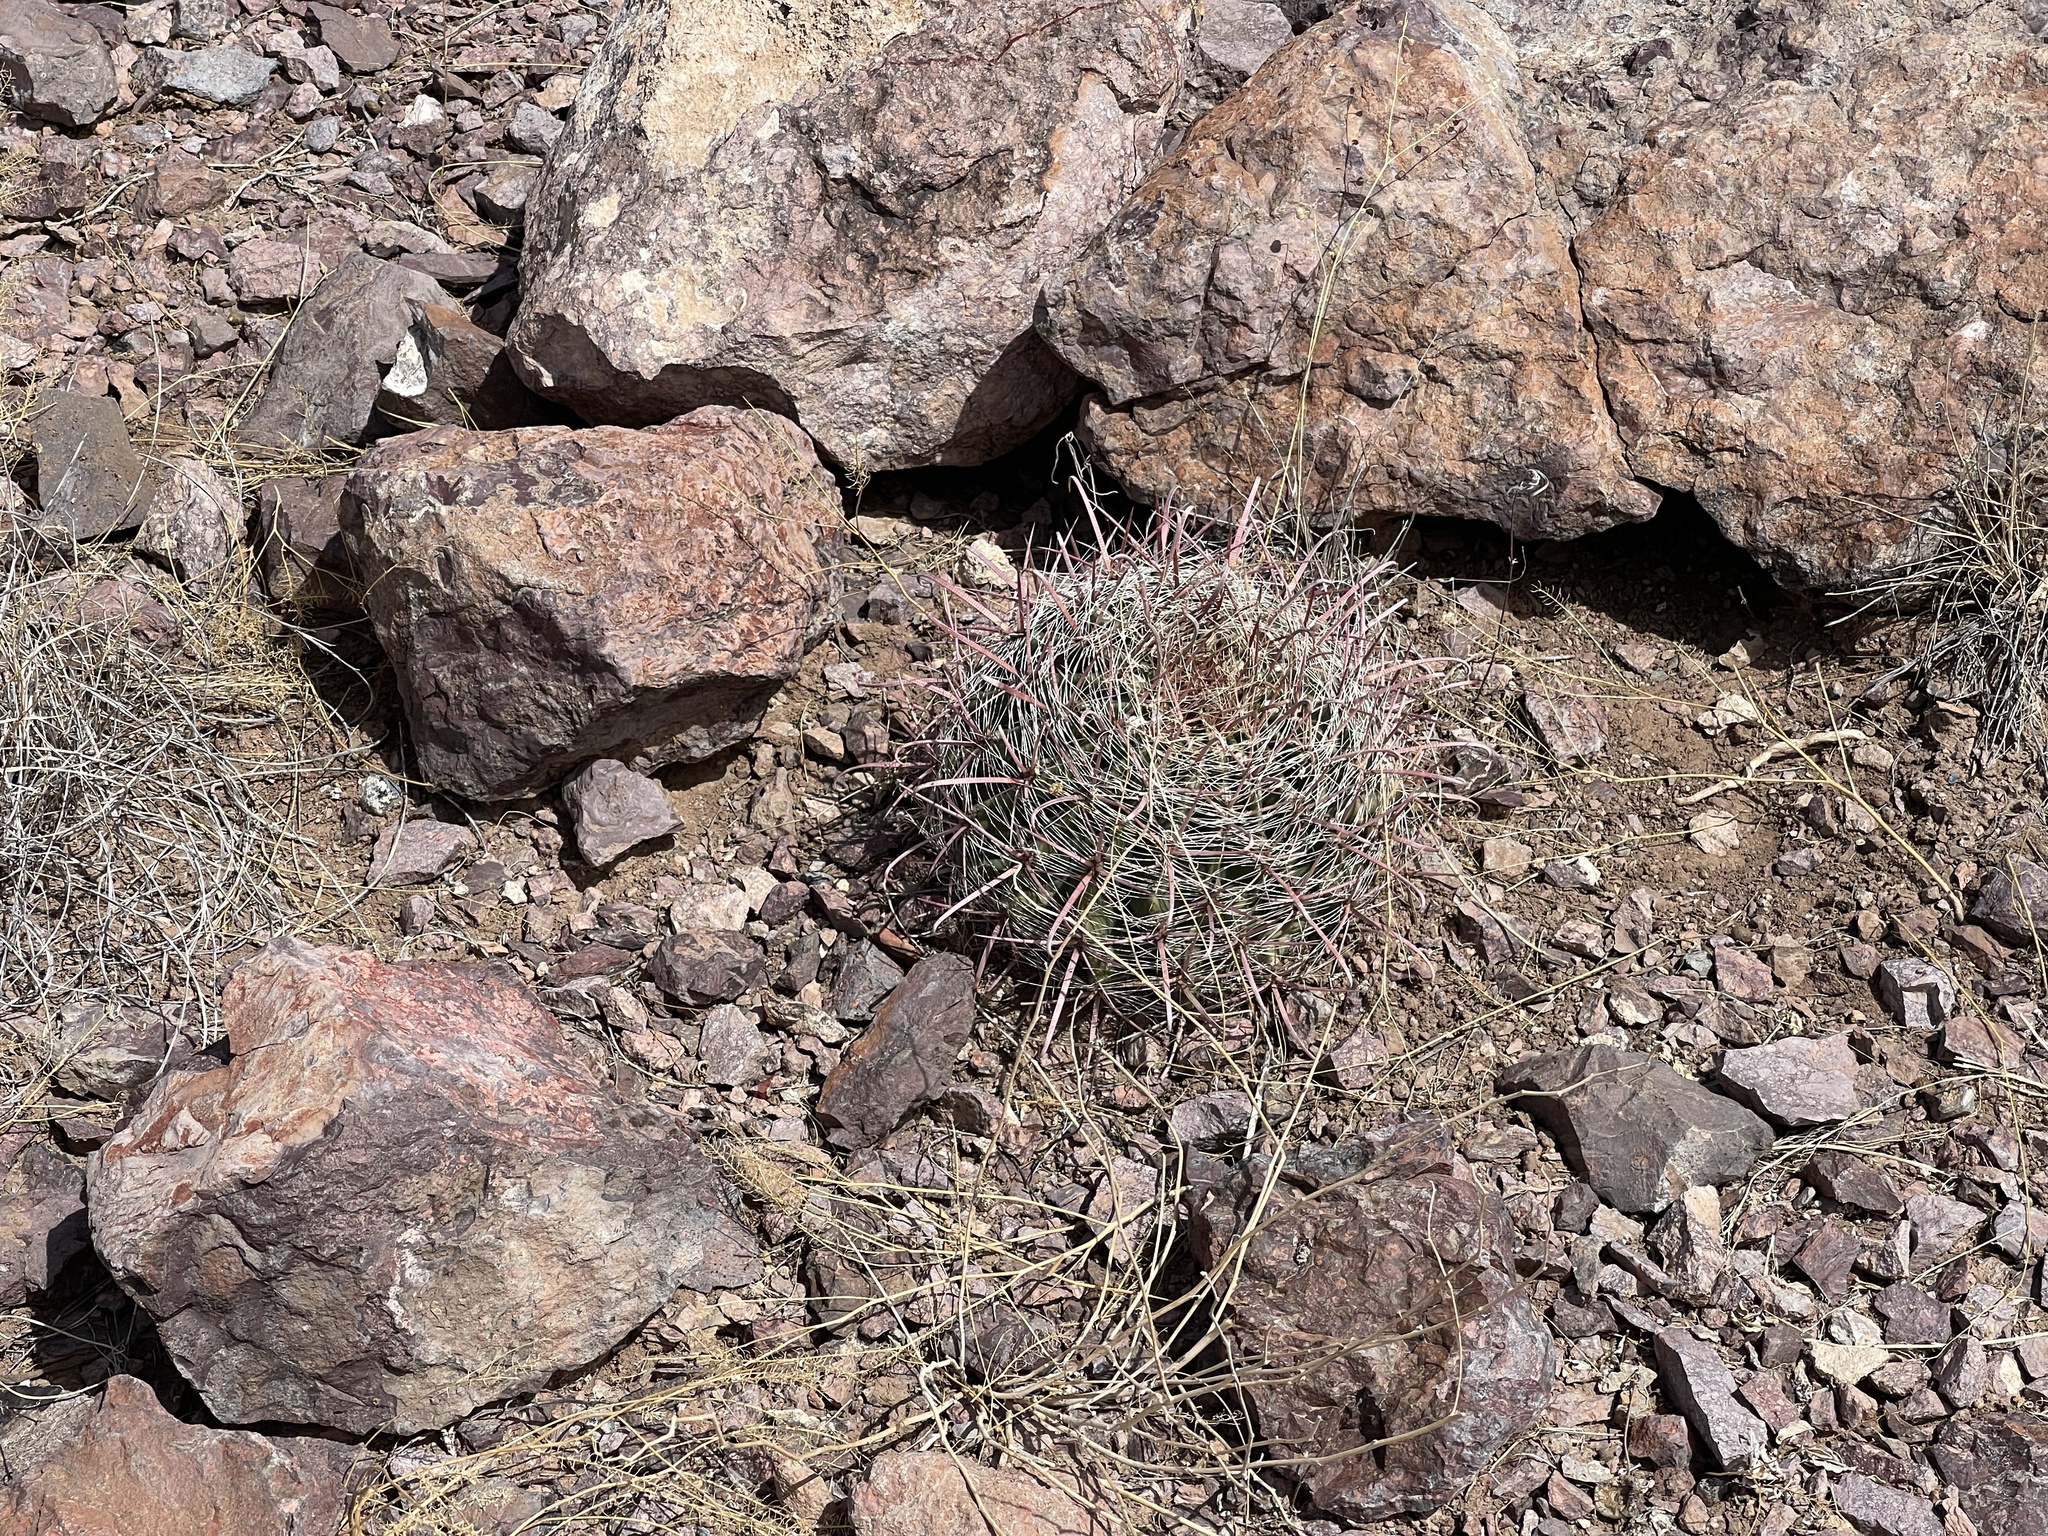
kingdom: Plantae
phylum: Tracheophyta
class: Magnoliopsida
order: Caryophyllales
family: Cactaceae
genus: Ferocactus
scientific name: Ferocactus wislizeni
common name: Candy barrel cactus
